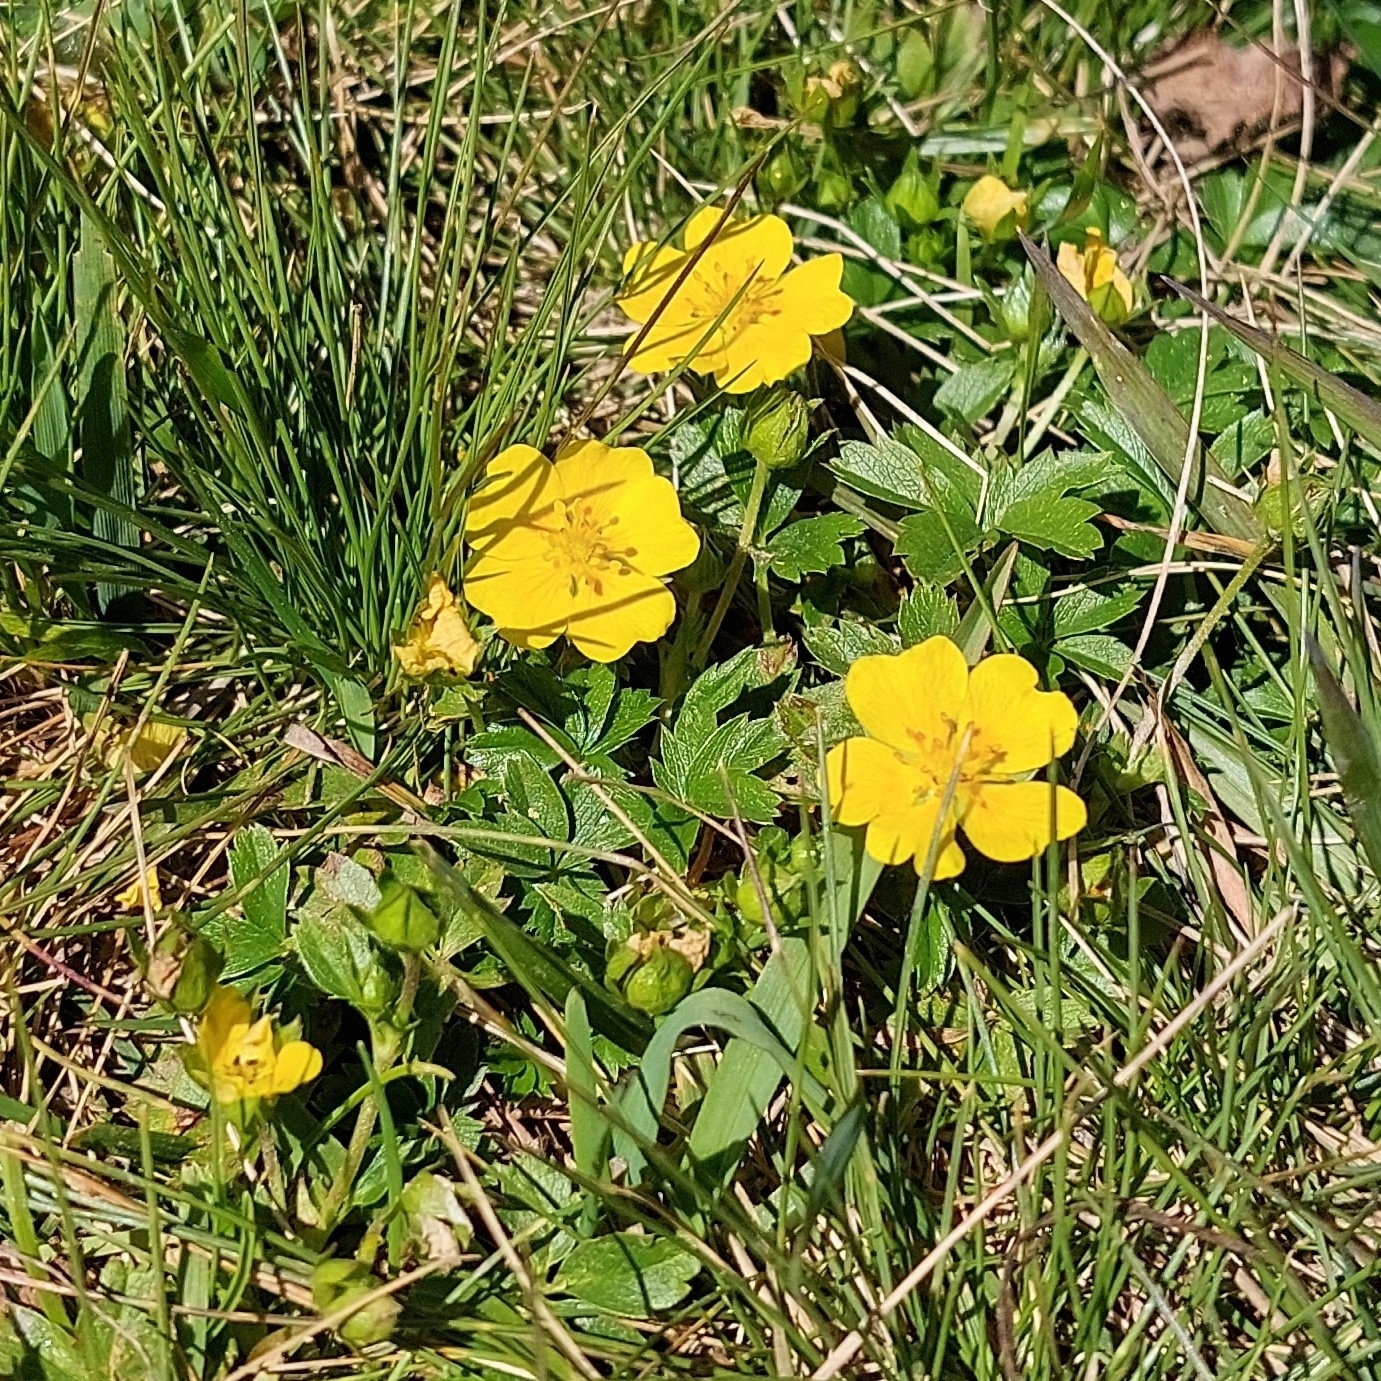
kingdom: Plantae
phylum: Tracheophyta
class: Magnoliopsida
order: Rosales
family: Rosaceae
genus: Potentilla
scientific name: Potentilla aurea
